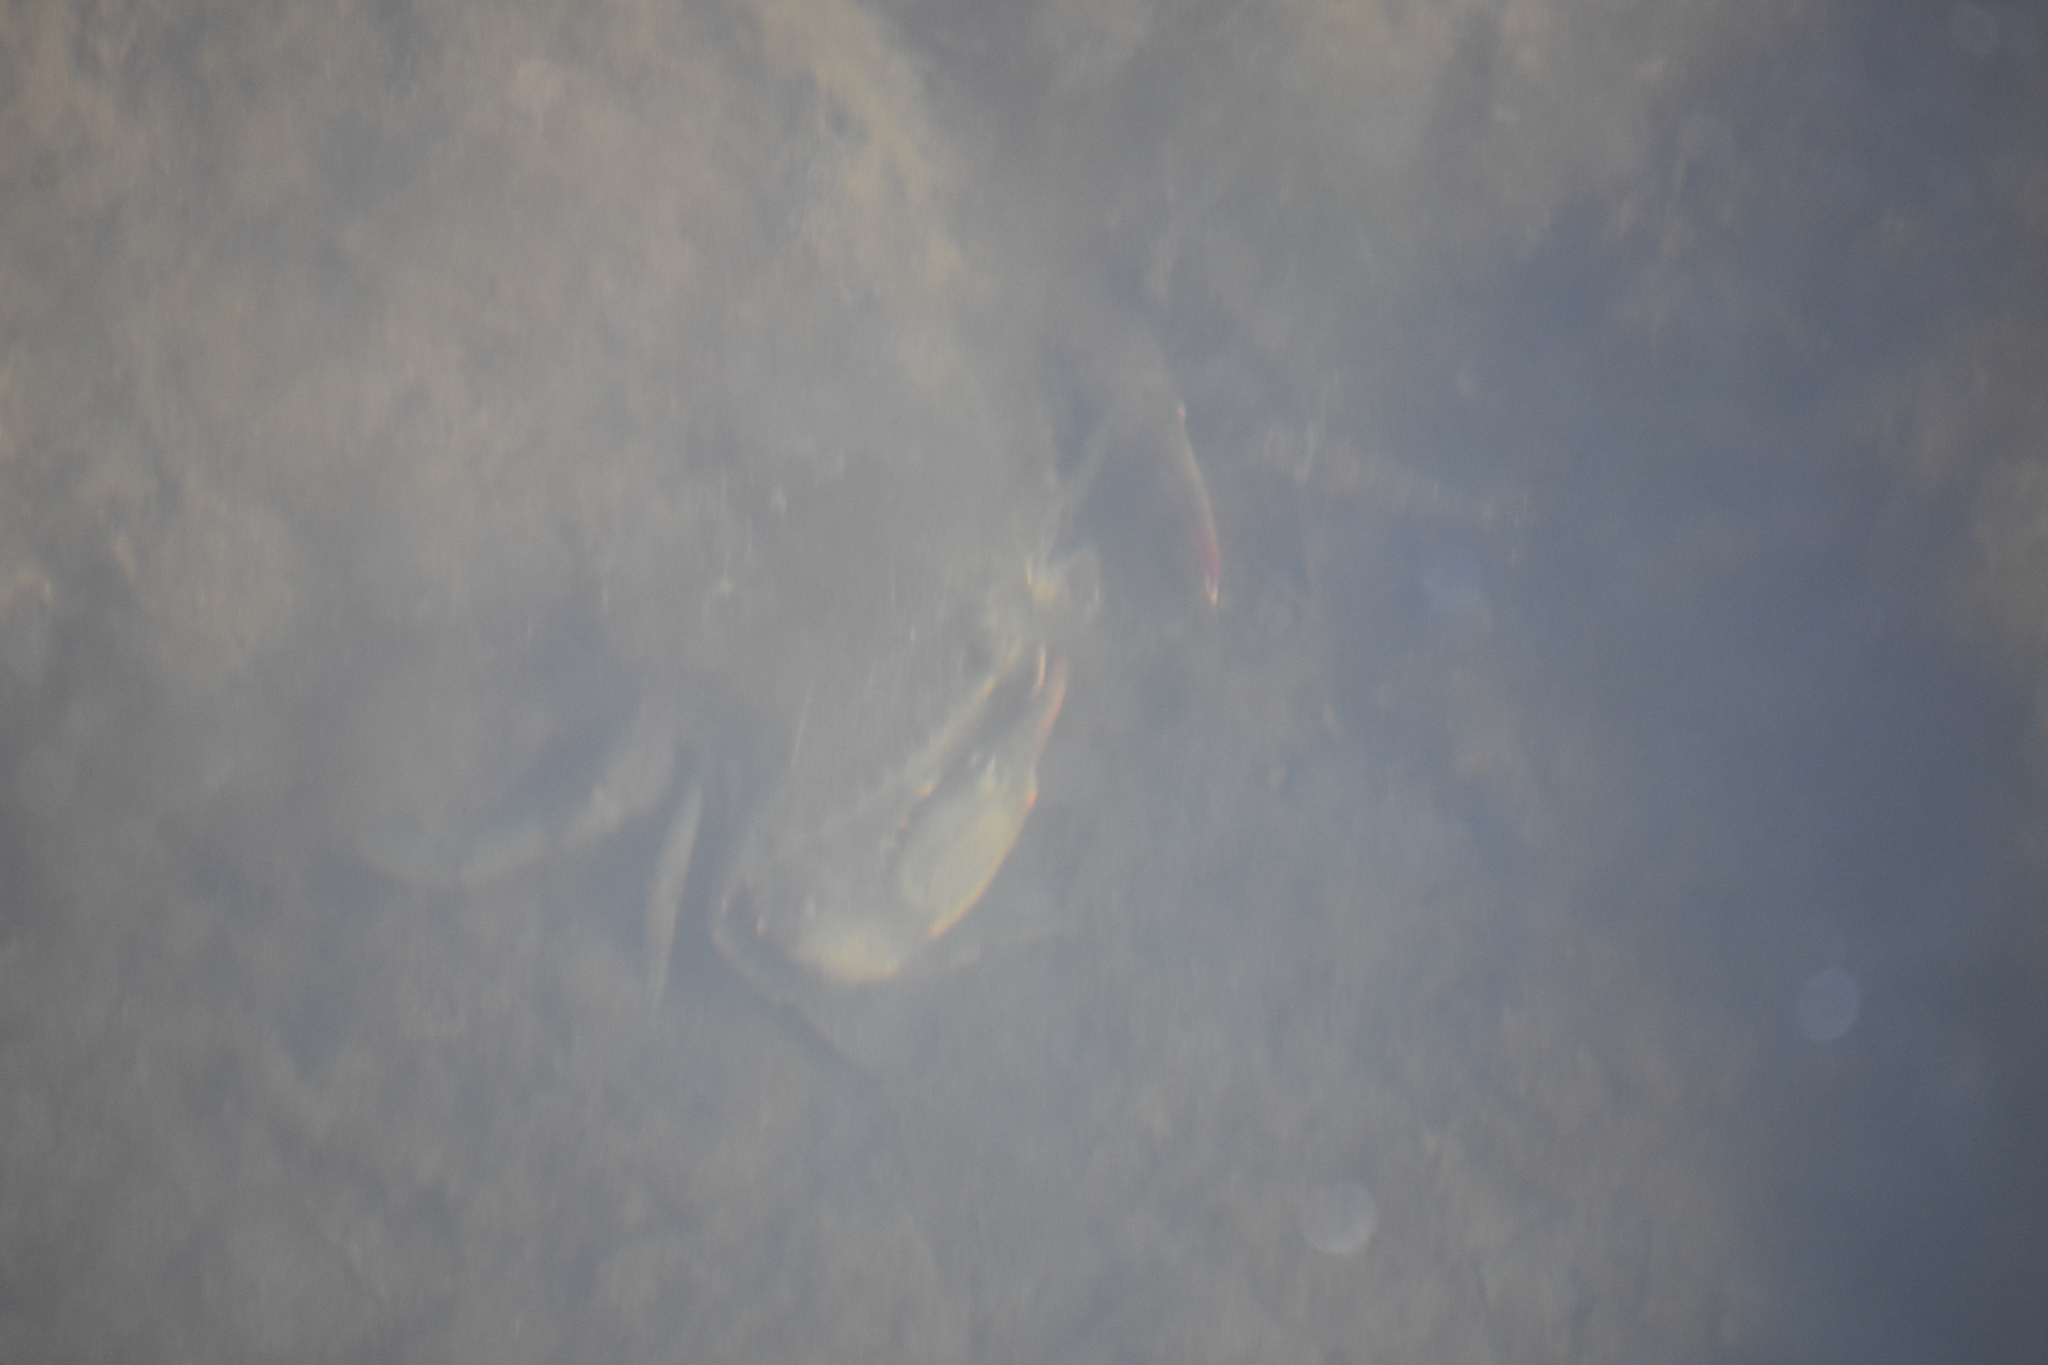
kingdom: Animalia
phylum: Arthropoda
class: Malacostraca
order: Decapoda
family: Portunidae
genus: Callinectes
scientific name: Callinectes sapidus
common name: Blue crab
